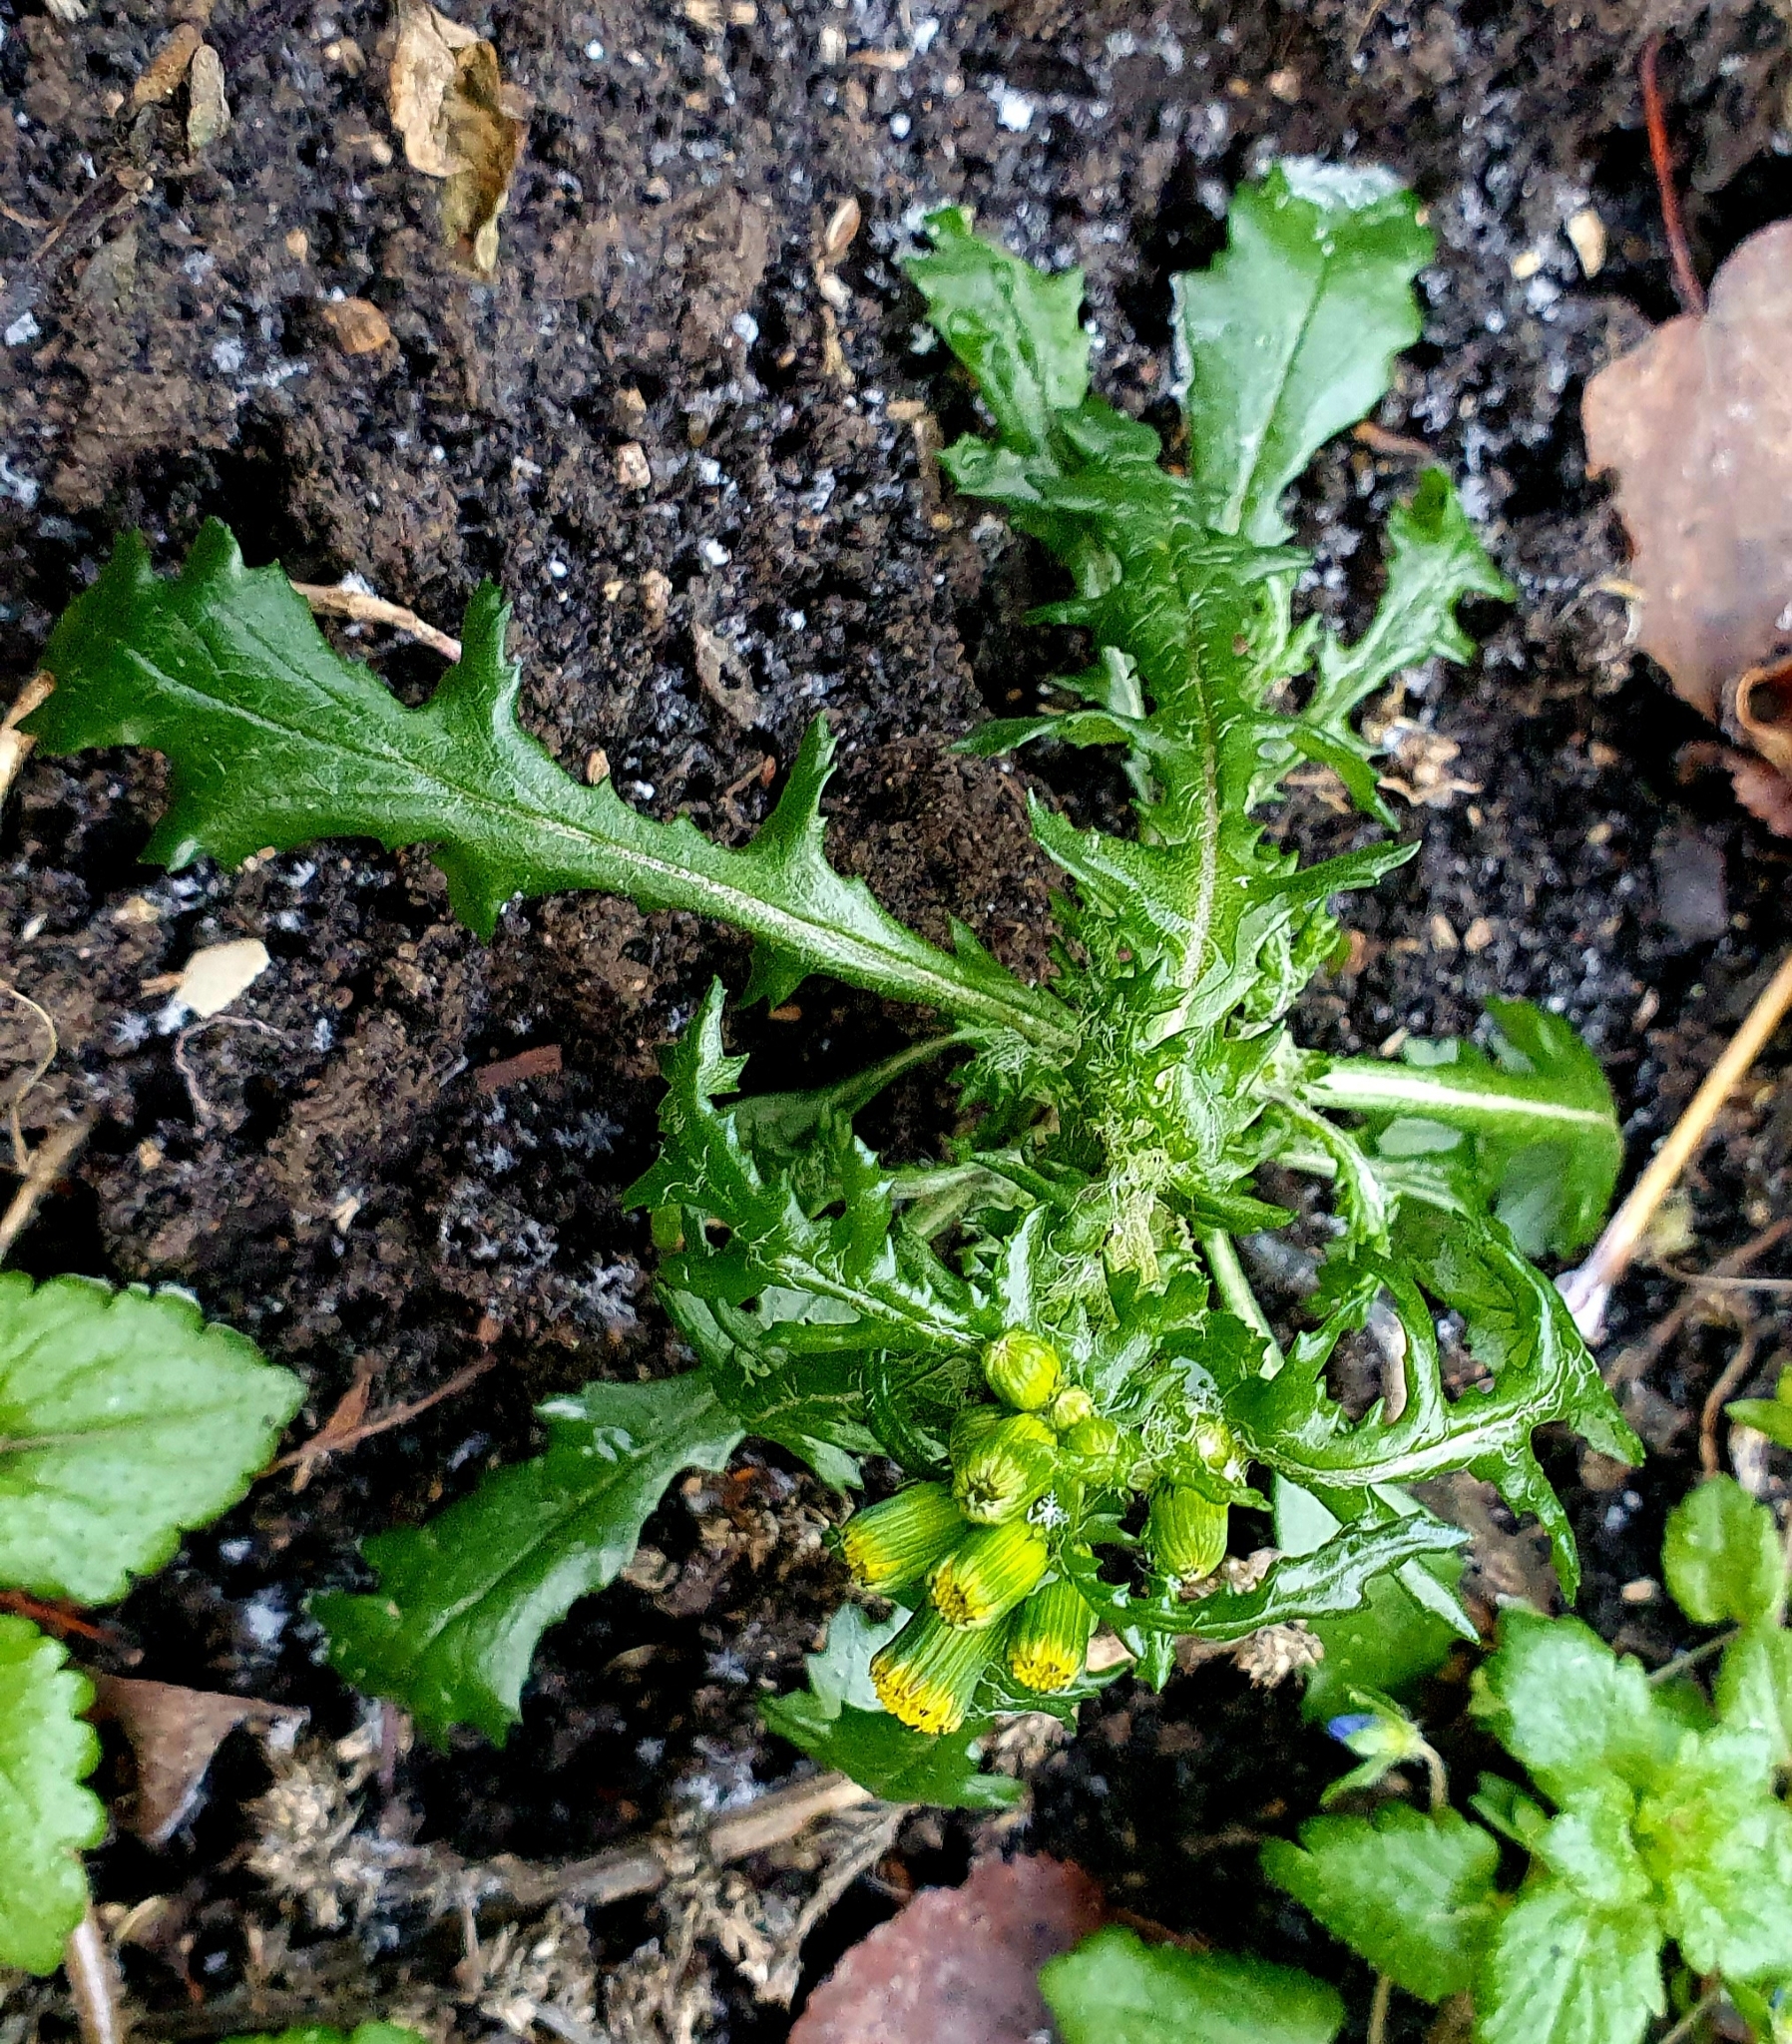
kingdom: Plantae
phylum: Tracheophyta
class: Magnoliopsida
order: Asterales
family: Asteraceae
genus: Senecio
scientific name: Senecio vulgaris
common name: Old-man-in-the-spring
